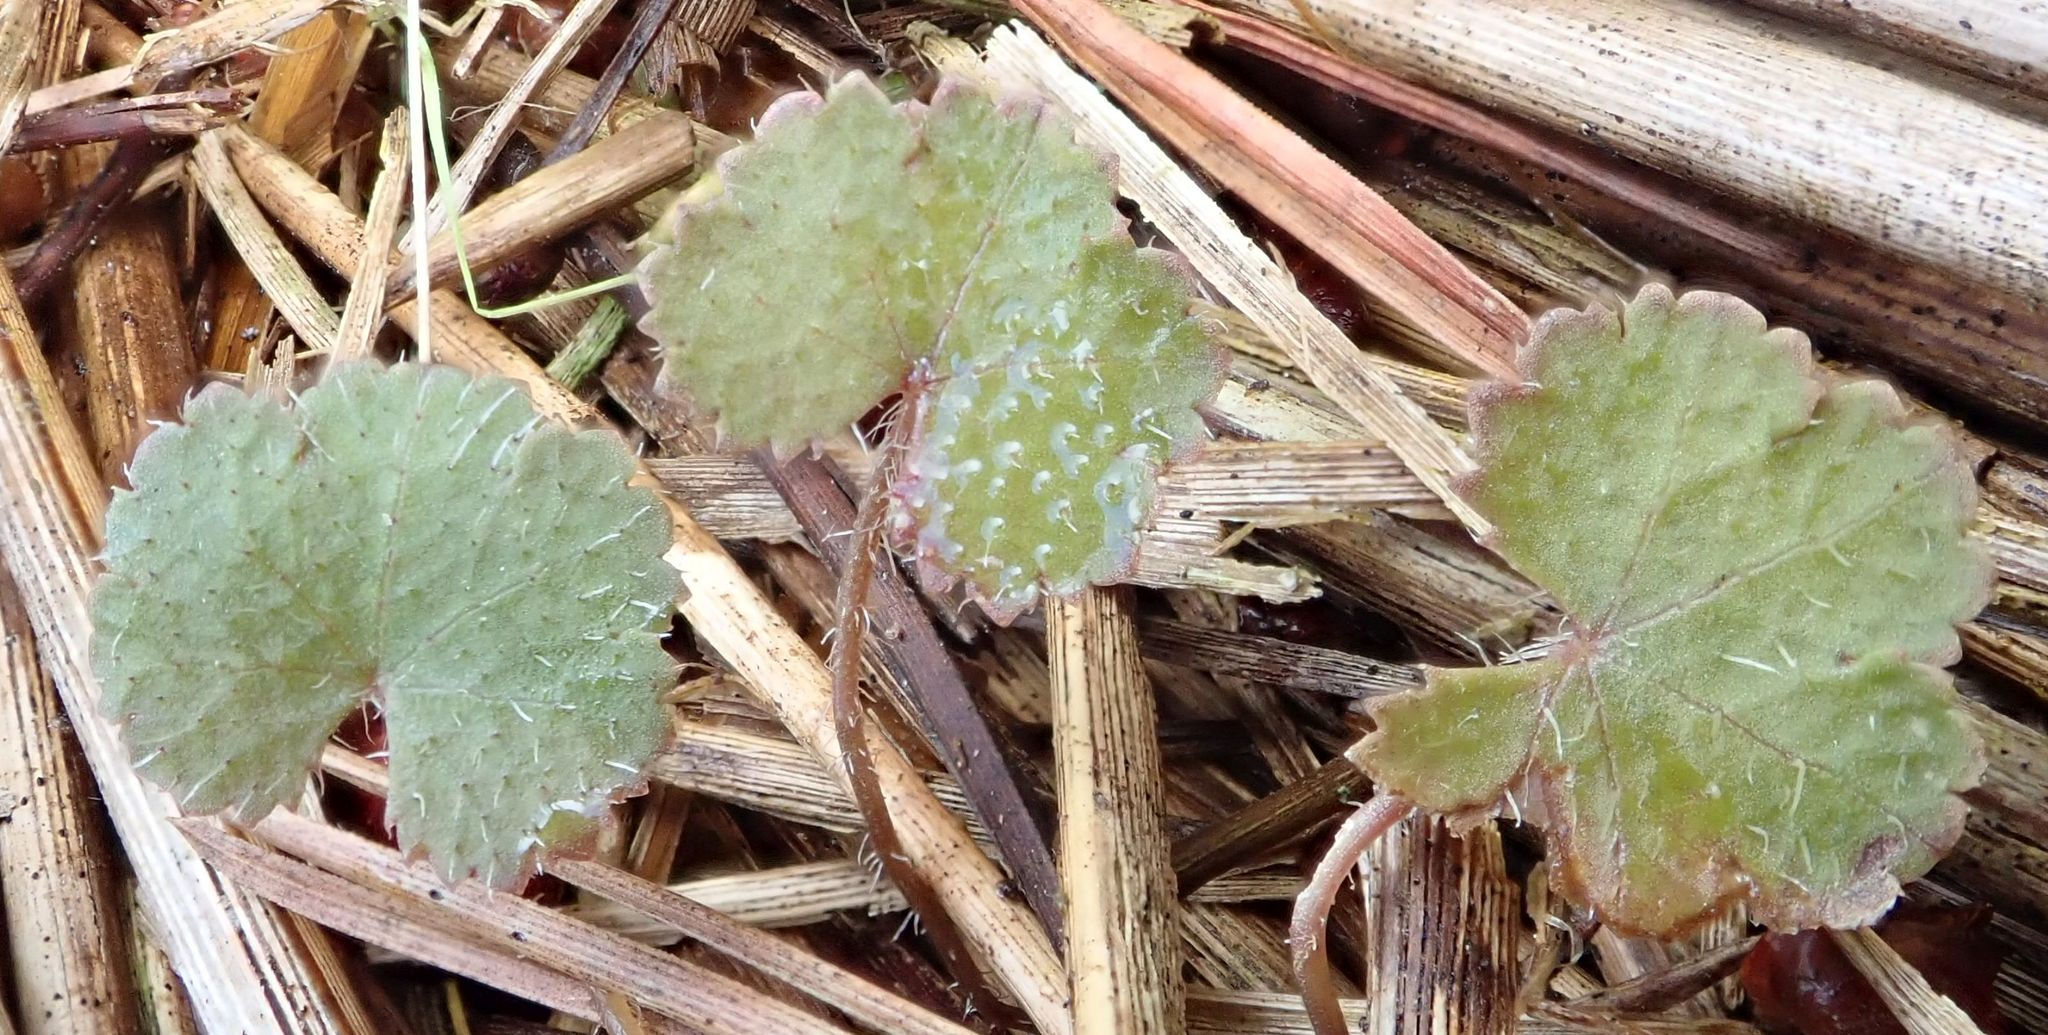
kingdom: Plantae
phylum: Tracheophyta
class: Magnoliopsida
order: Apiales
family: Araliaceae
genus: Hydrocotyle
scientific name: Hydrocotyle moschata
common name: Hairy pennywort
